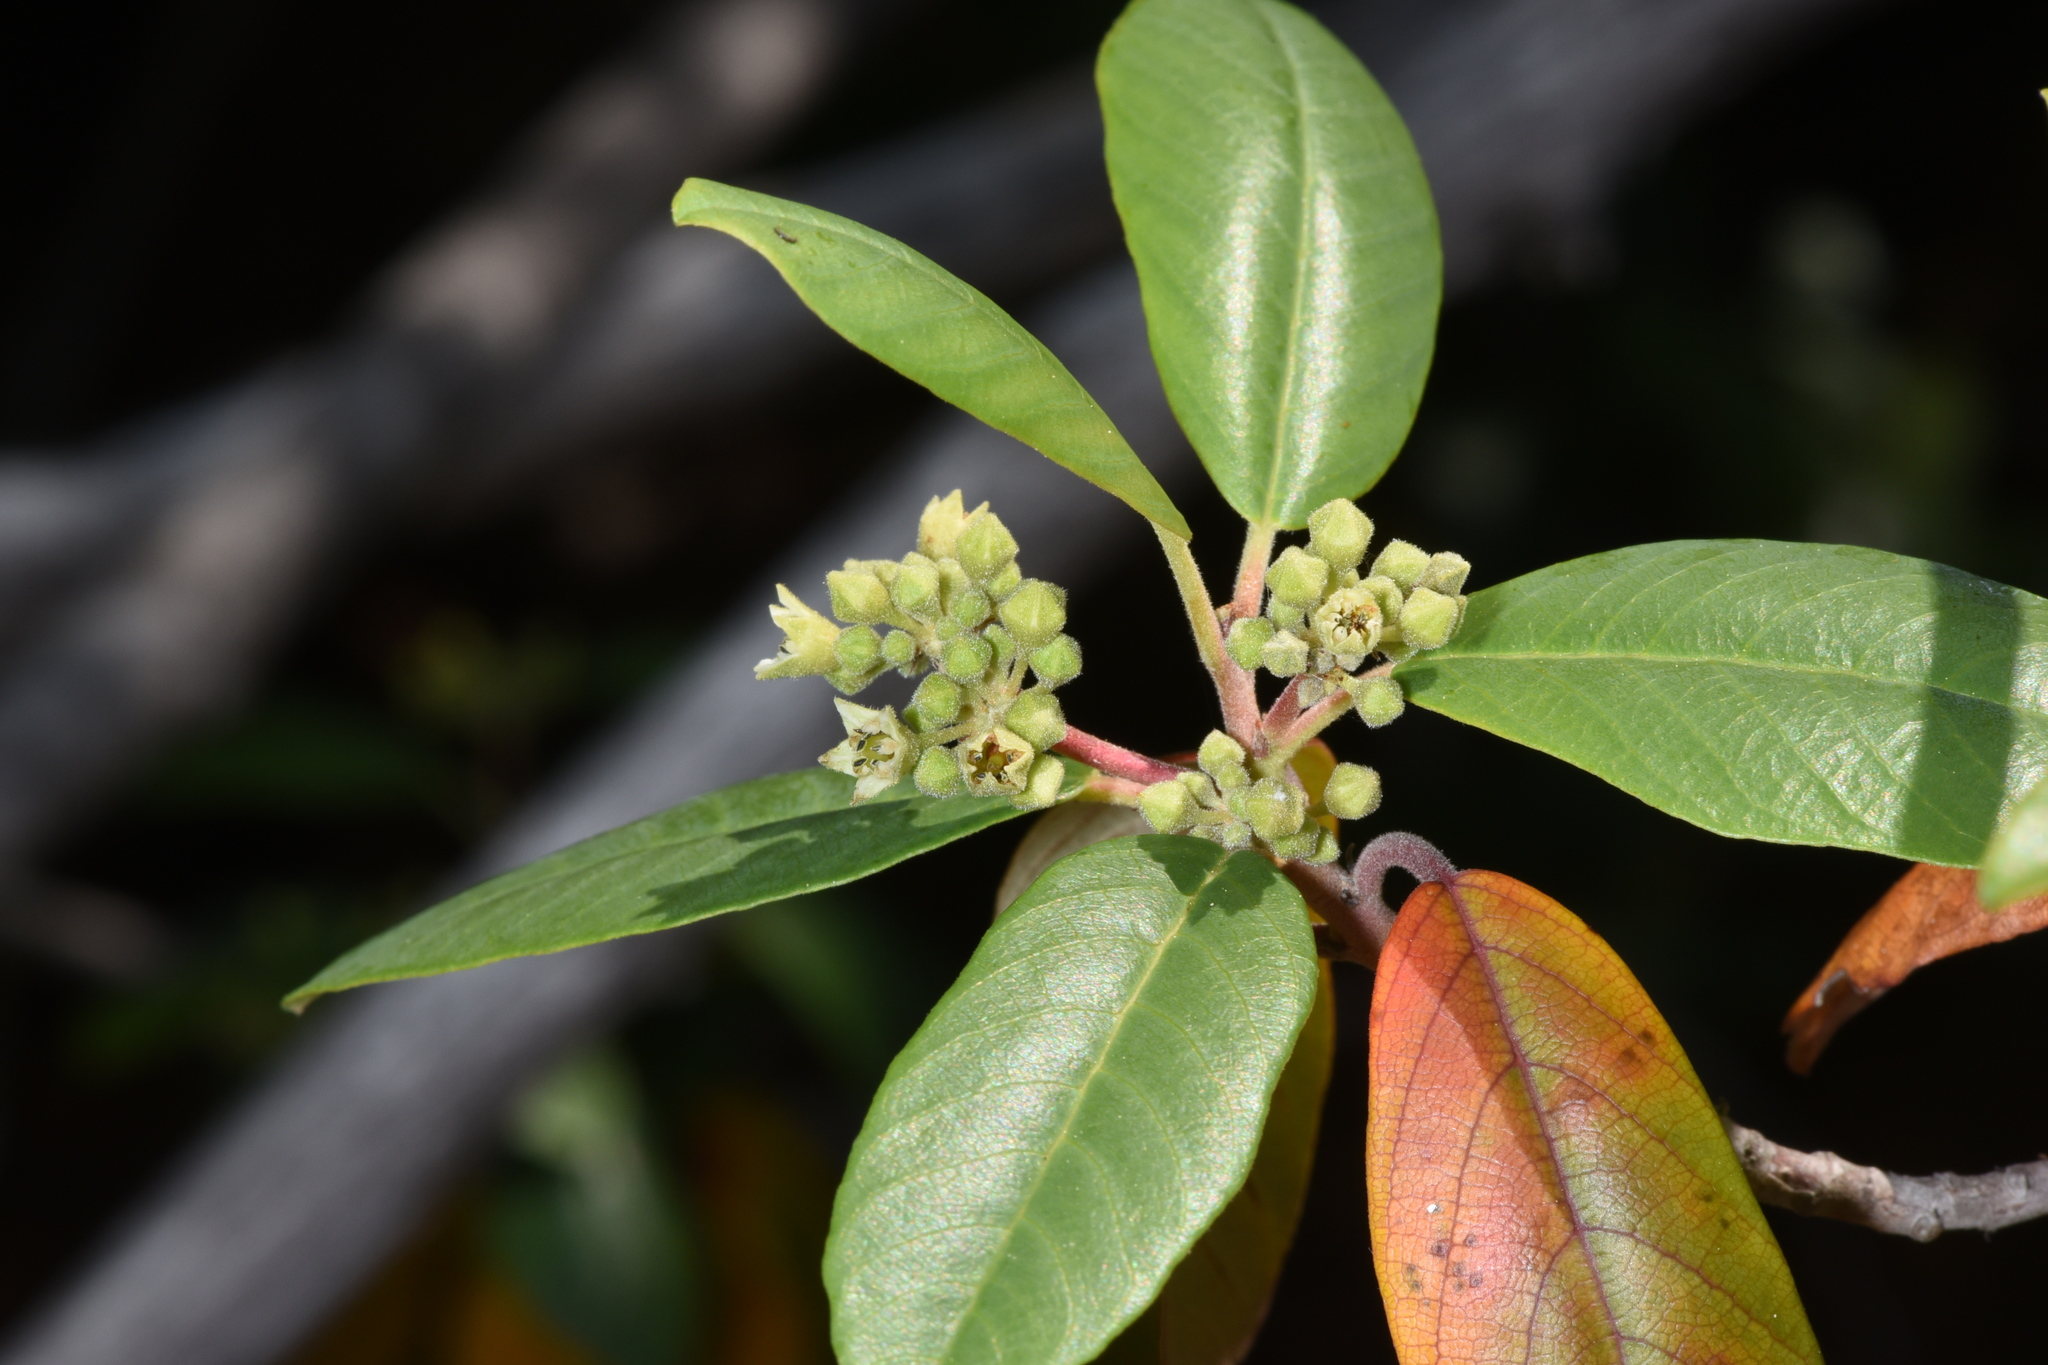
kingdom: Plantae
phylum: Tracheophyta
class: Magnoliopsida
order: Rosales
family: Rhamnaceae
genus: Frangula
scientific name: Frangula californica
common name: California buckthorn
